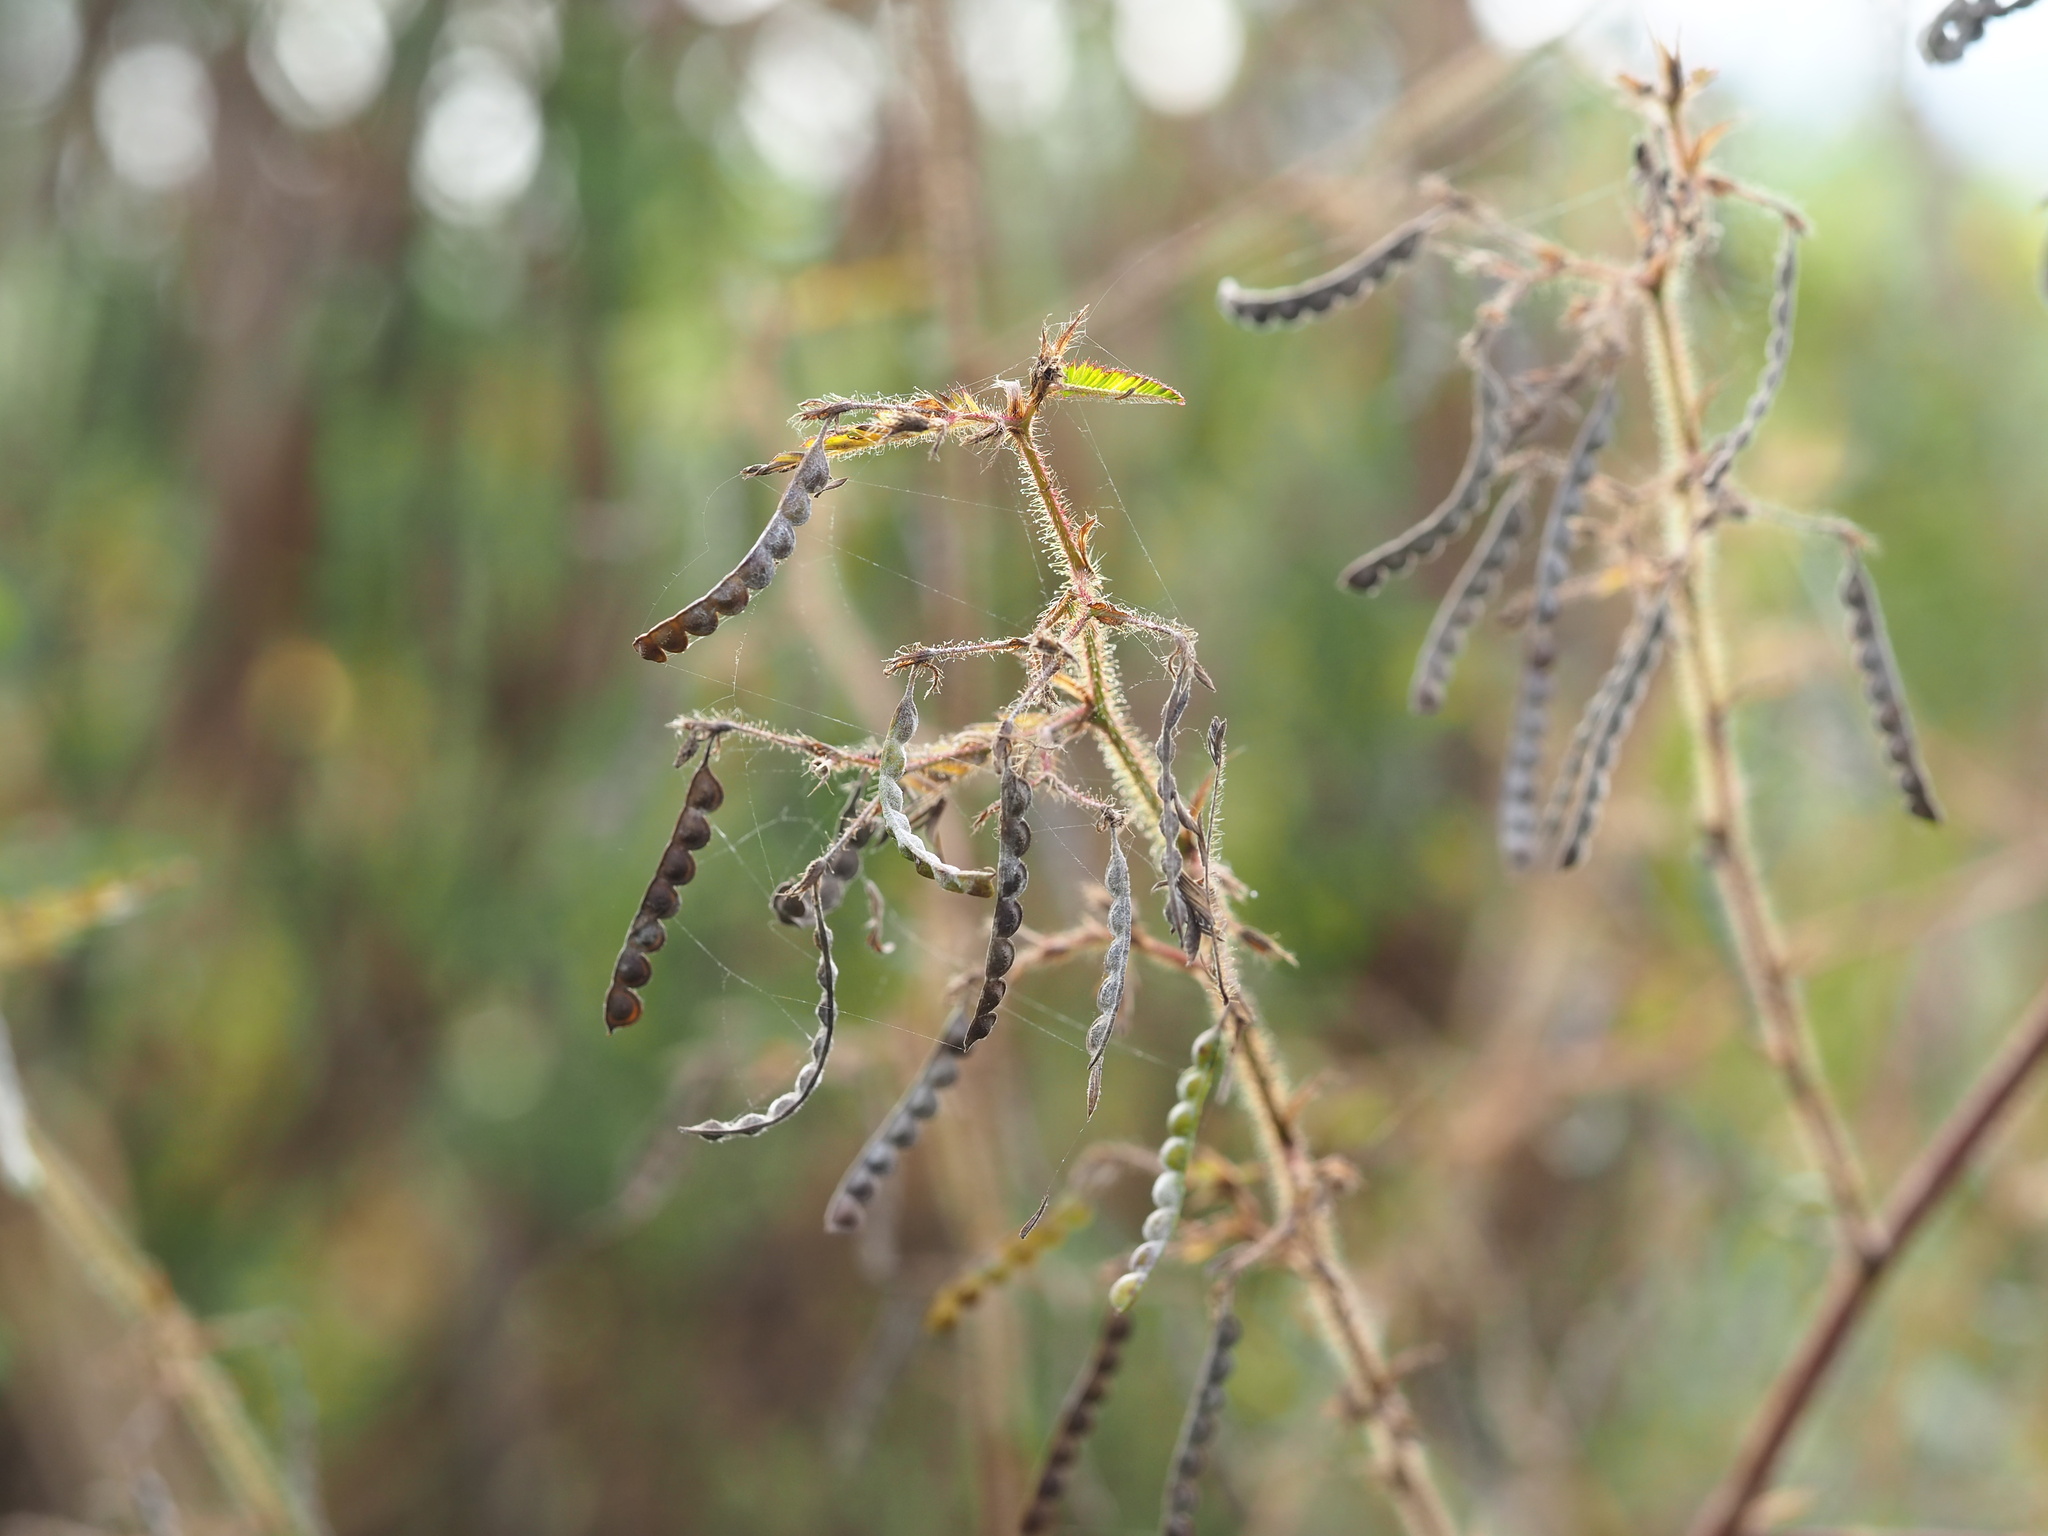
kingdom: Plantae
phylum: Tracheophyta
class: Magnoliopsida
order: Fabales
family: Fabaceae
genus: Aeschynomene
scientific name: Aeschynomene americana
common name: Joint-vetch
